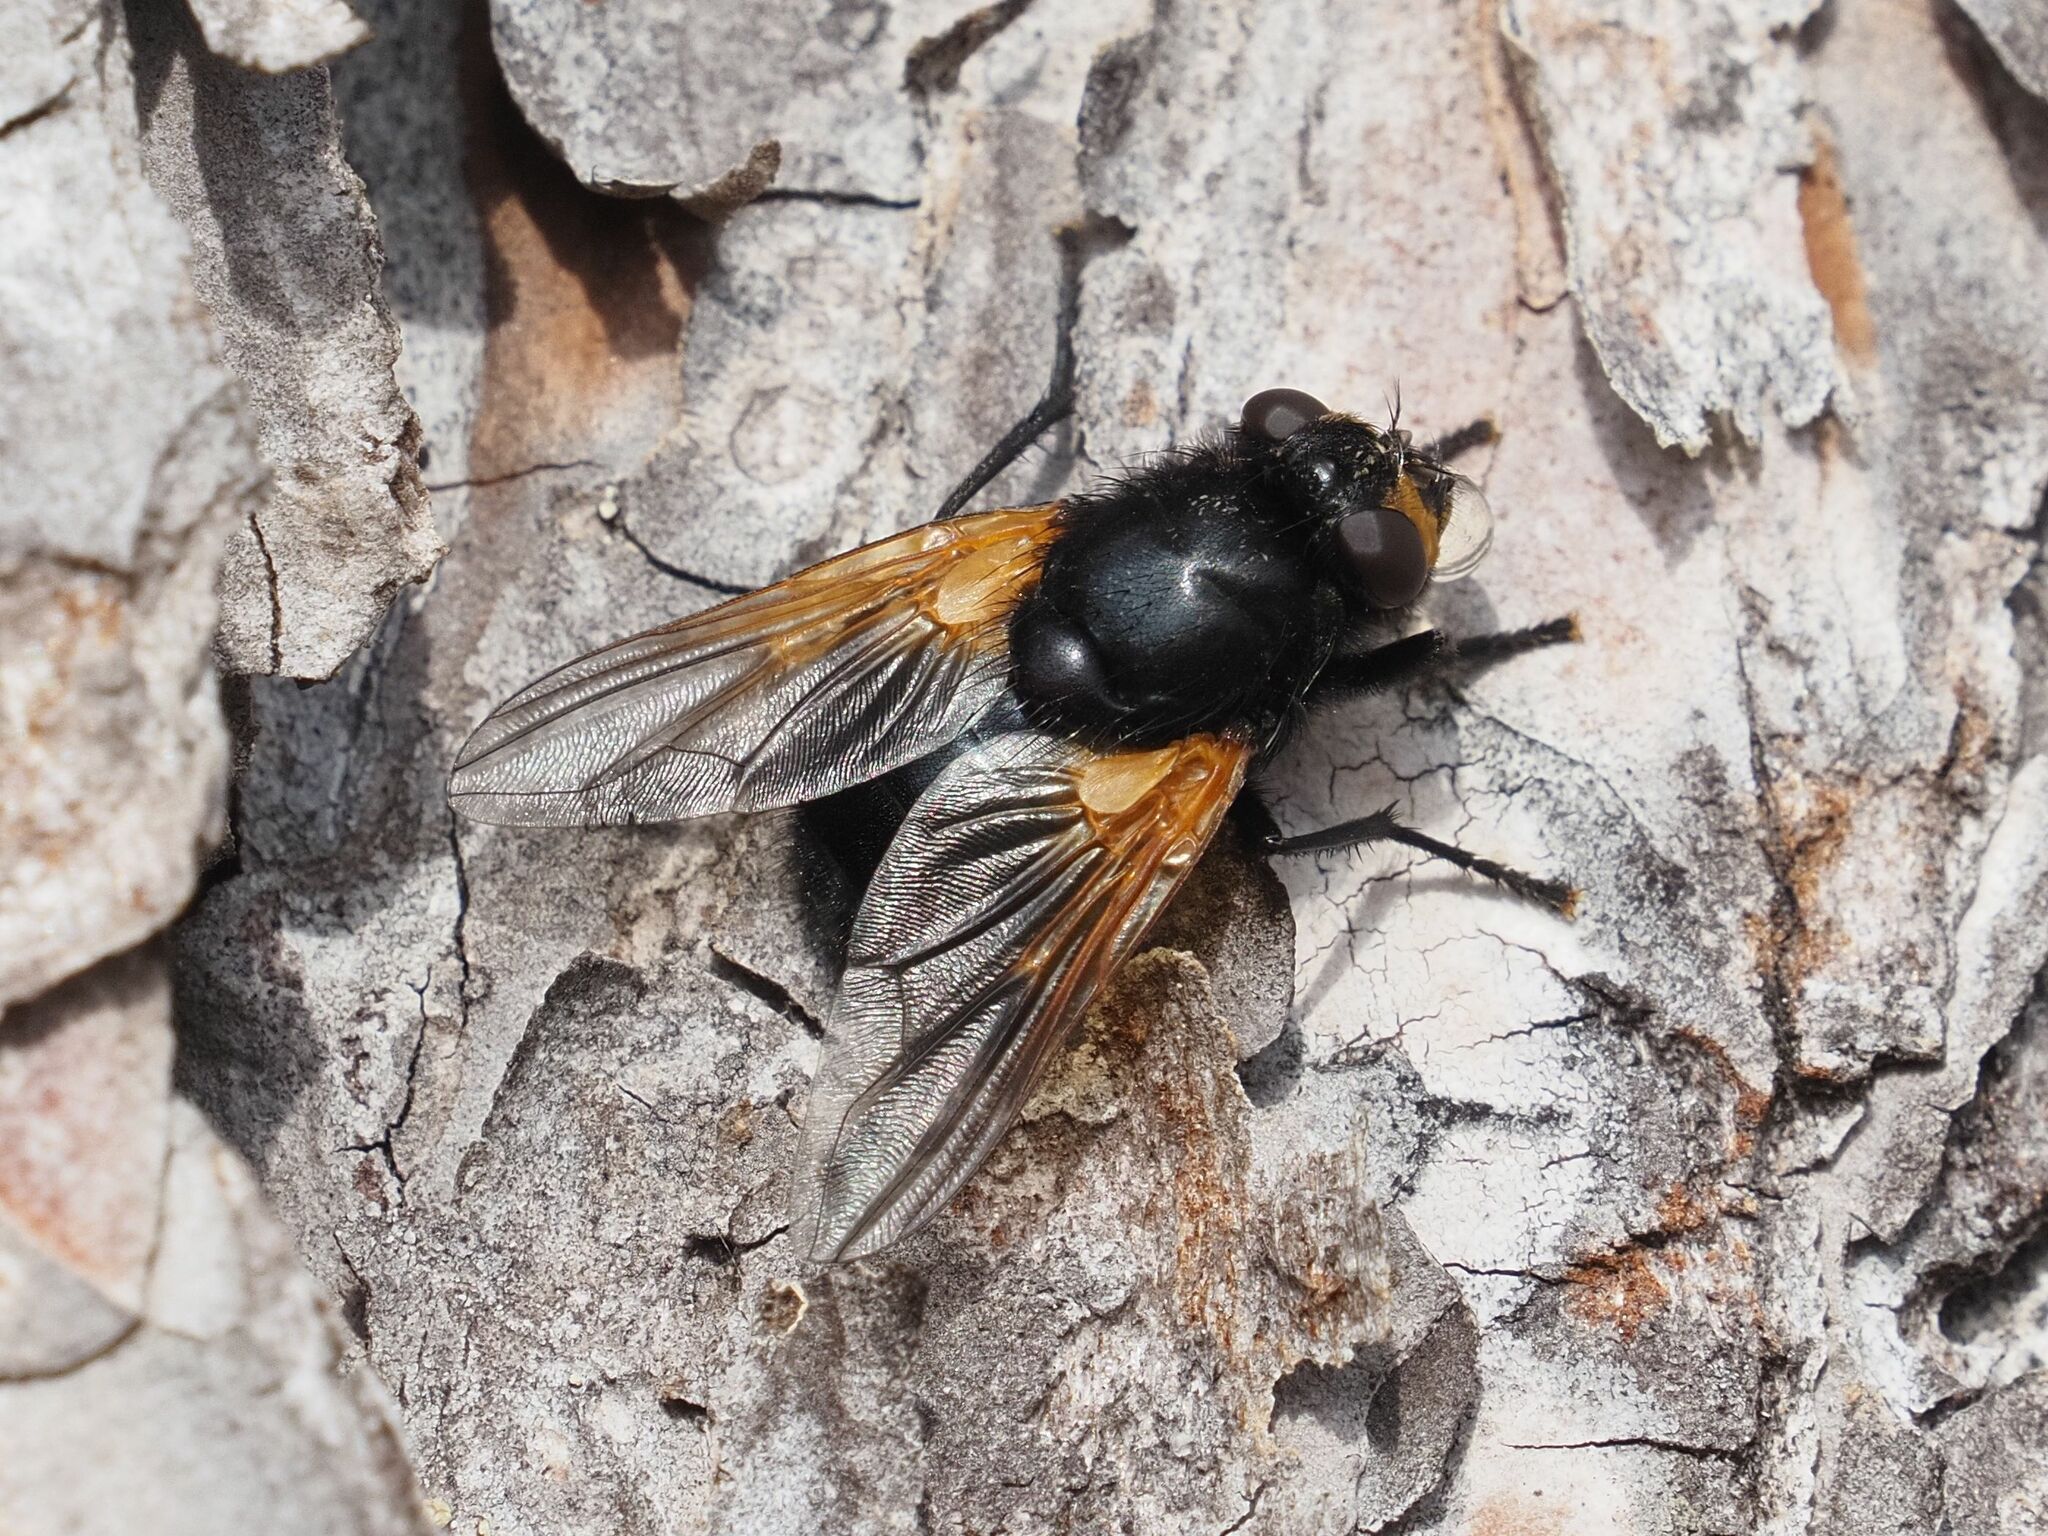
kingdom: Animalia
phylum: Arthropoda
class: Insecta
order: Diptera
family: Muscidae
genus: Mesembrina
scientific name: Mesembrina meridiana
